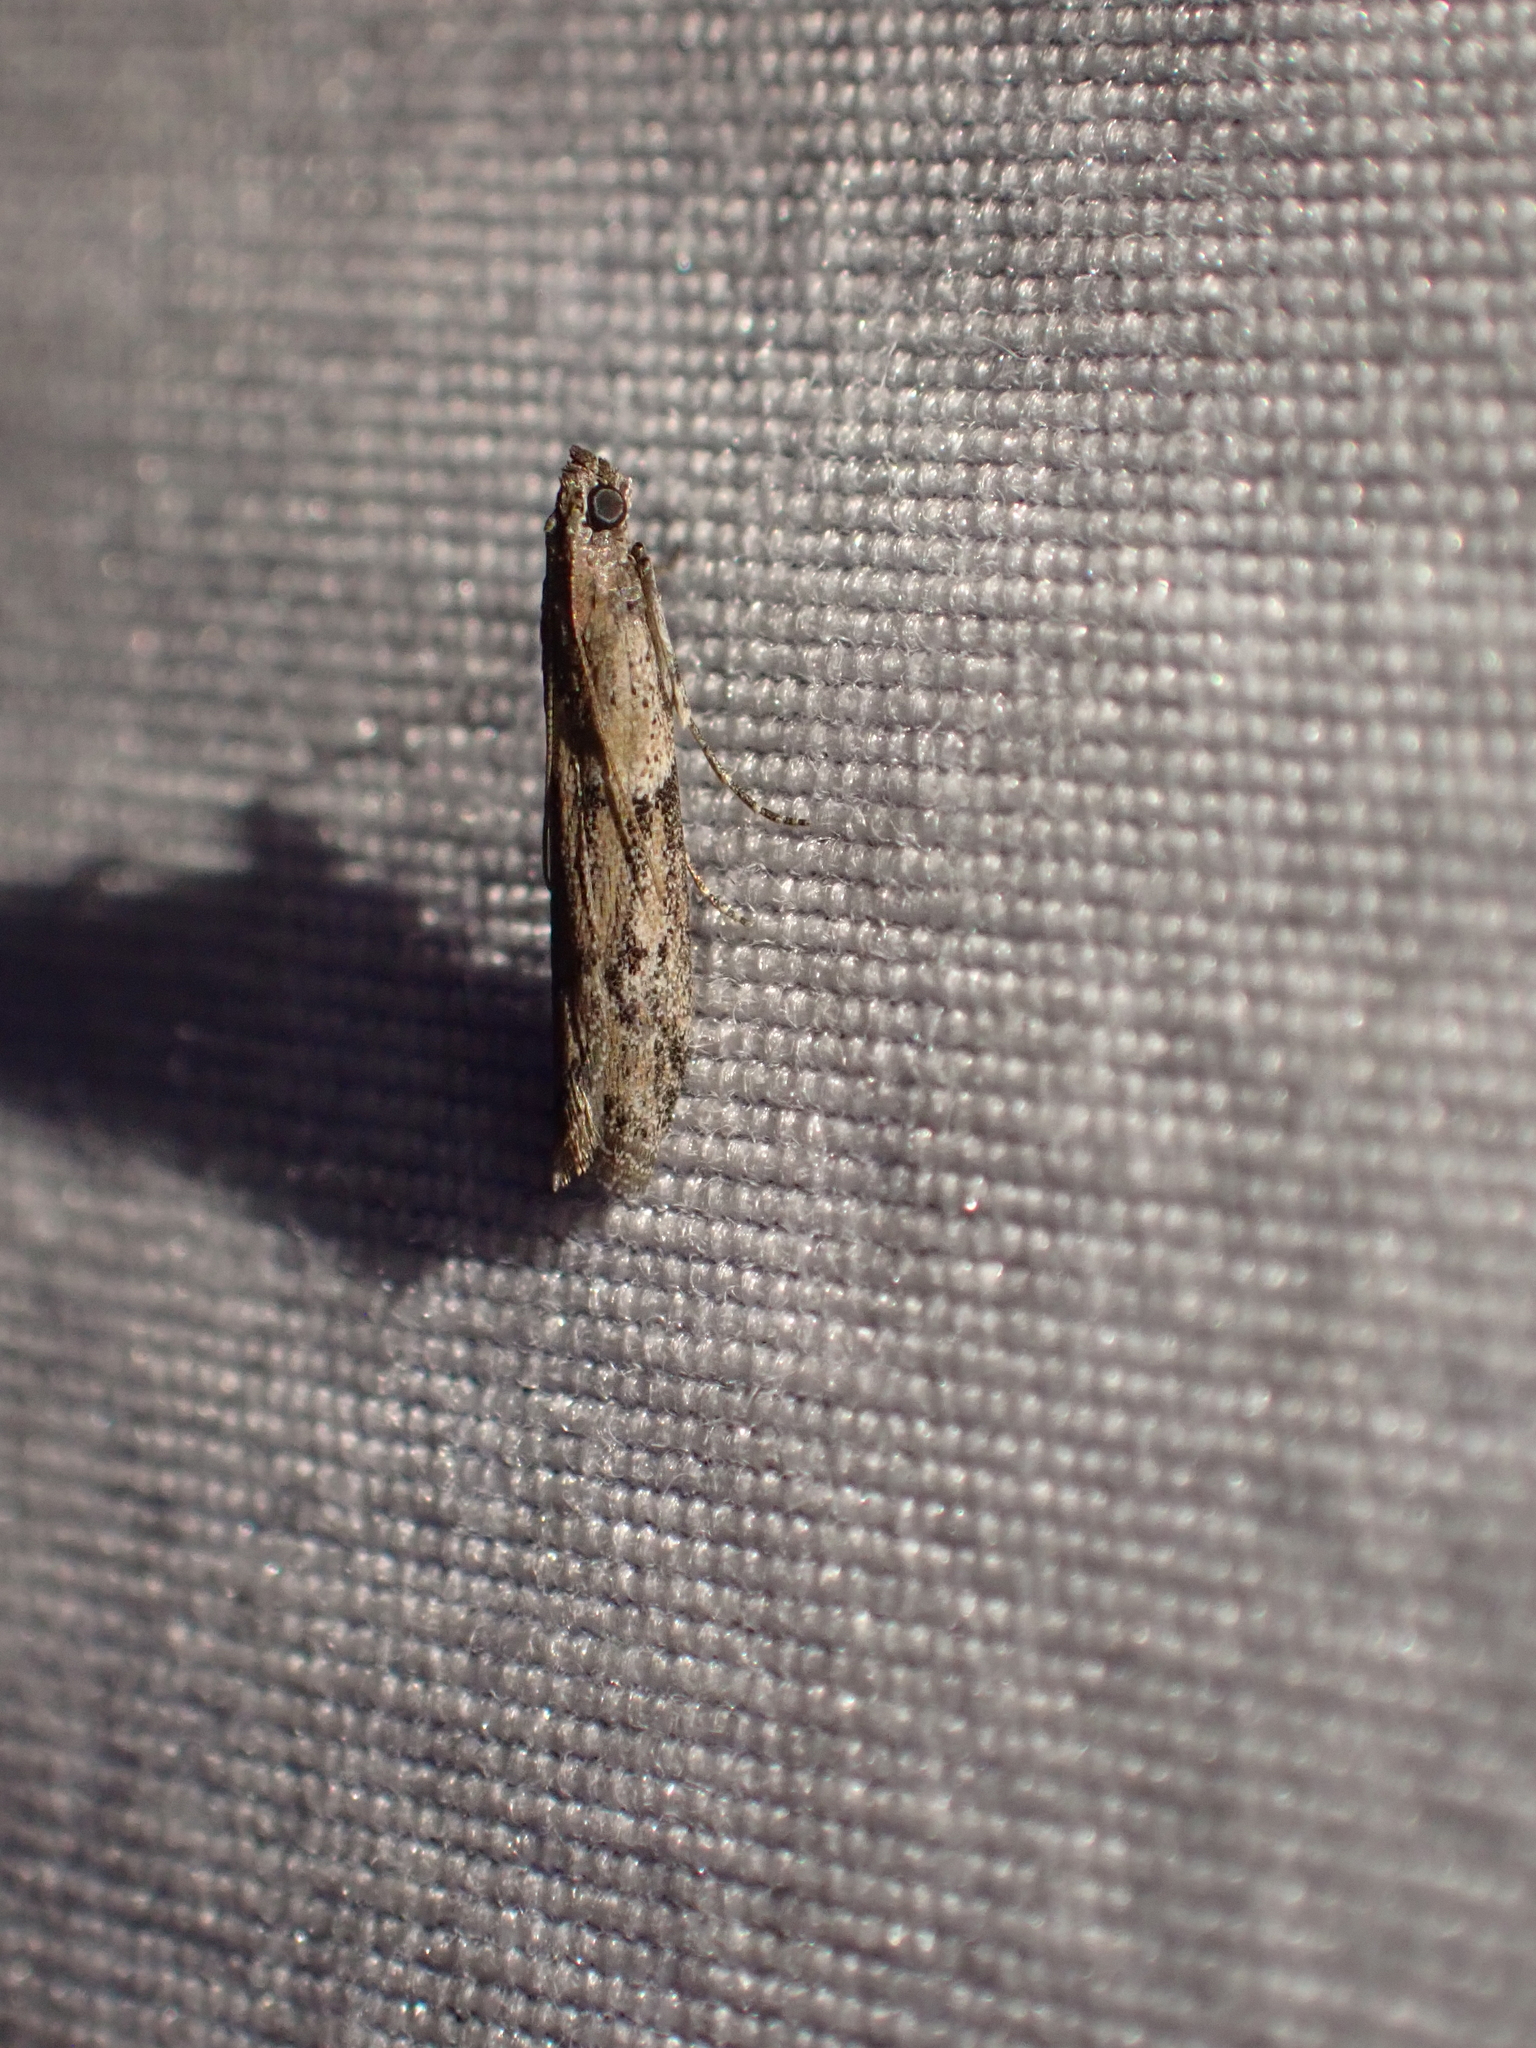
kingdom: Animalia
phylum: Arthropoda
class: Insecta
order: Lepidoptera
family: Pyralidae
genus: Ephestiodes
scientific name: Ephestiodes gilvescentella
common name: Moth
